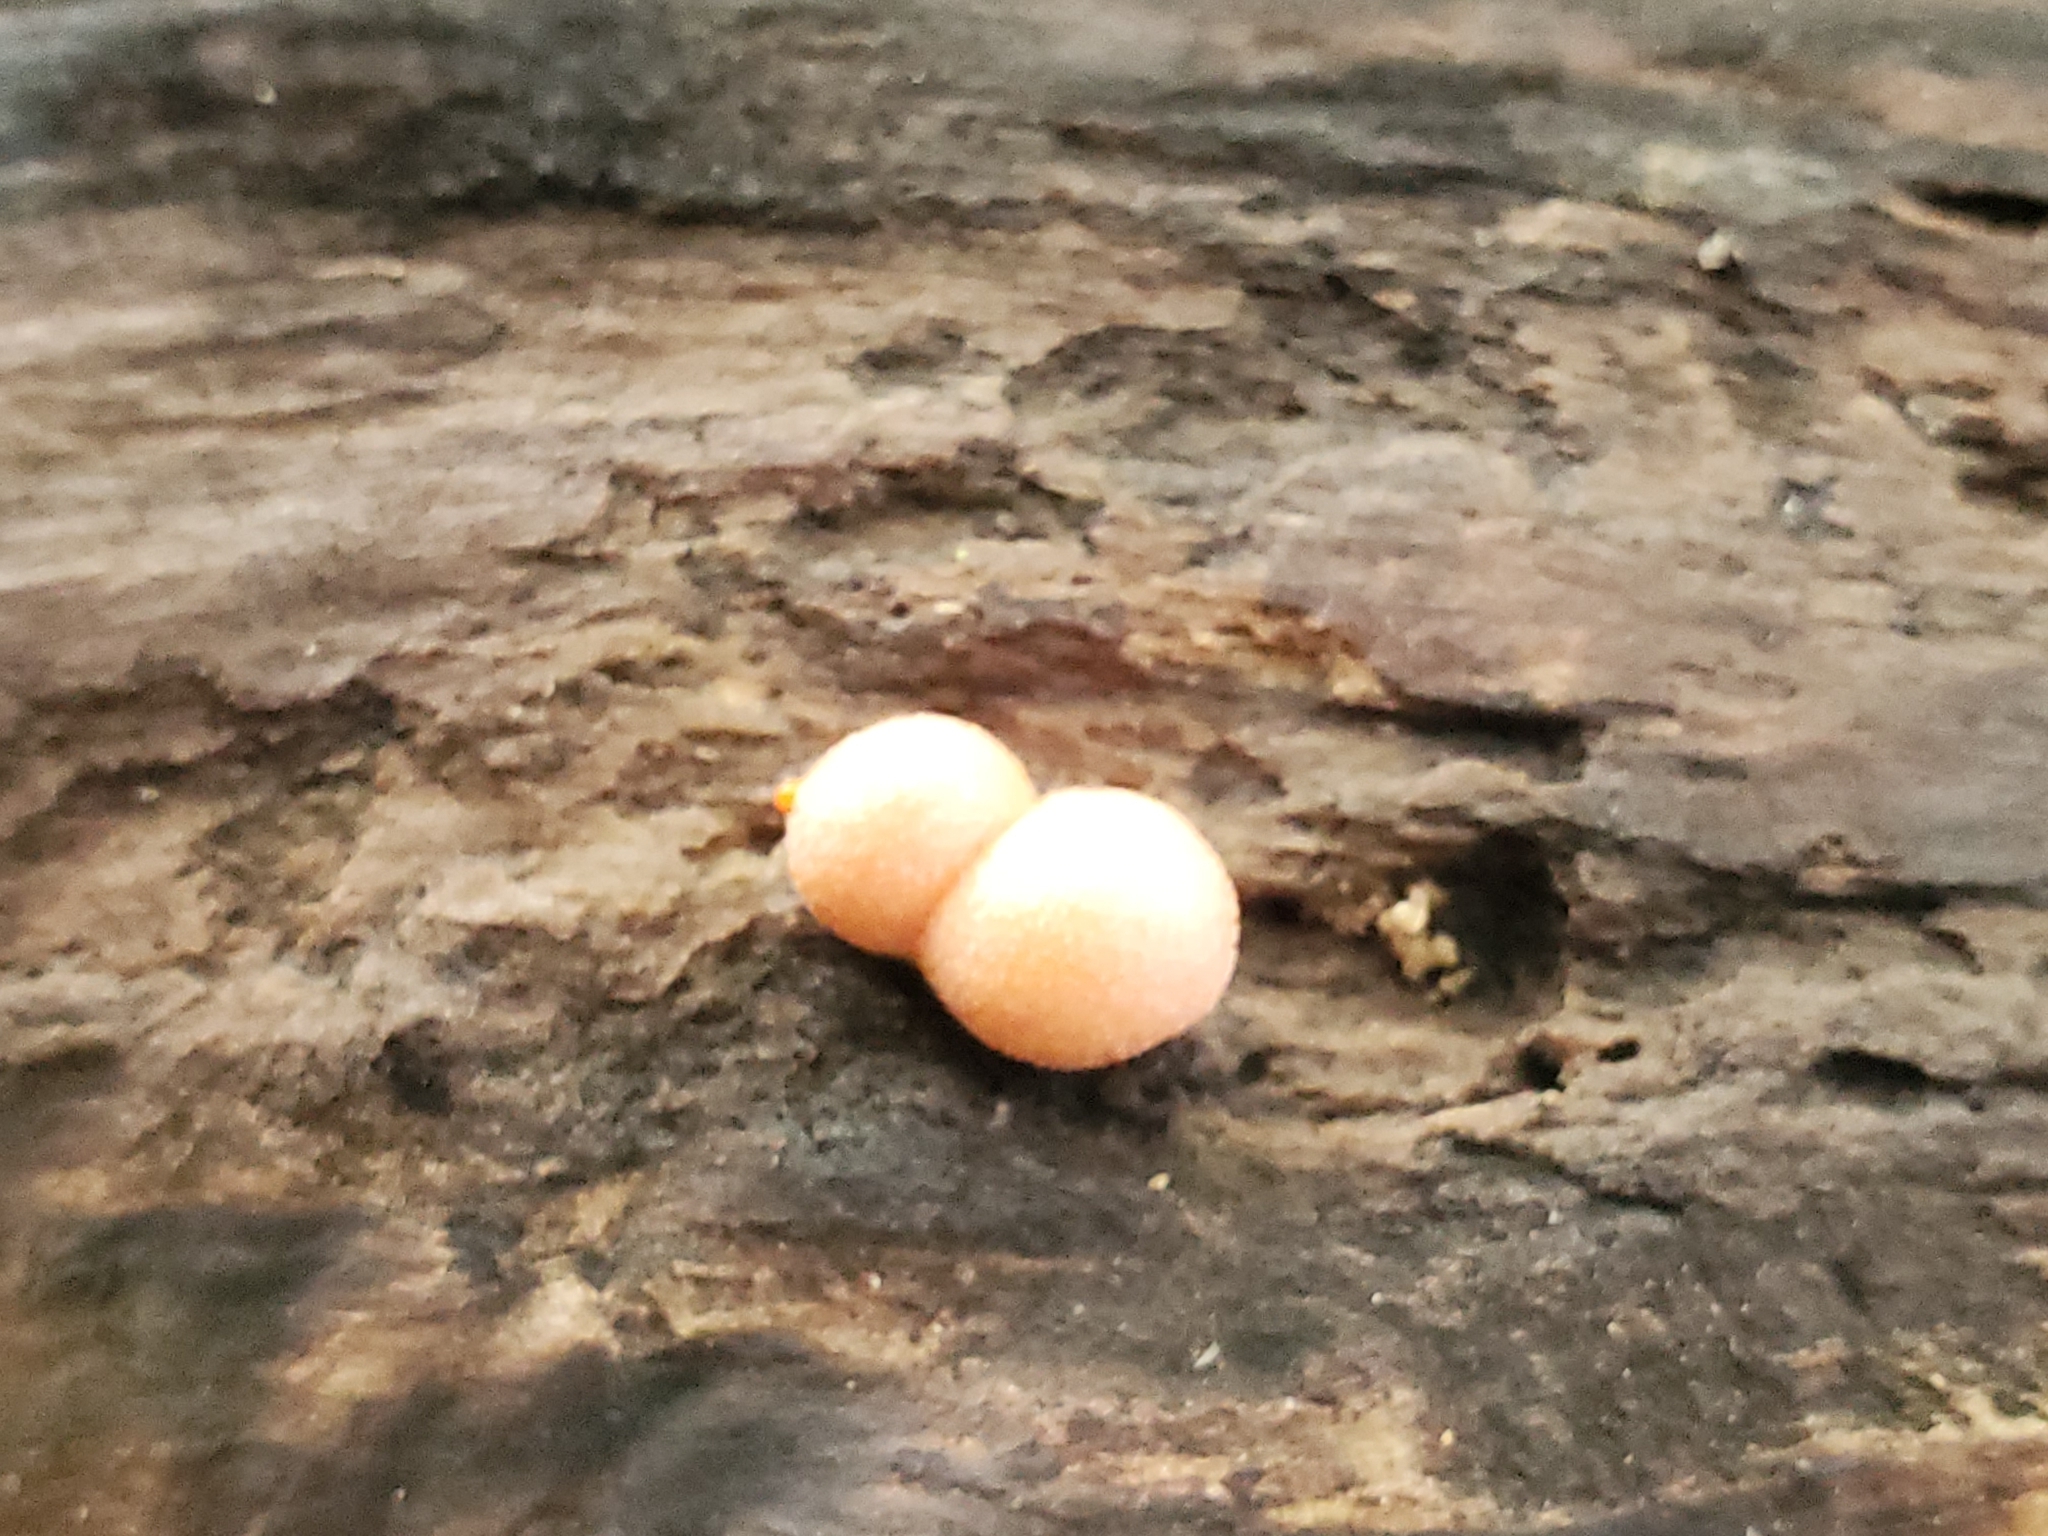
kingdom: Protozoa
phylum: Mycetozoa
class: Myxomycetes
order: Cribrariales
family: Tubiferaceae
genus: Lycogala
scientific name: Lycogala epidendrum
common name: Wolf's milk
